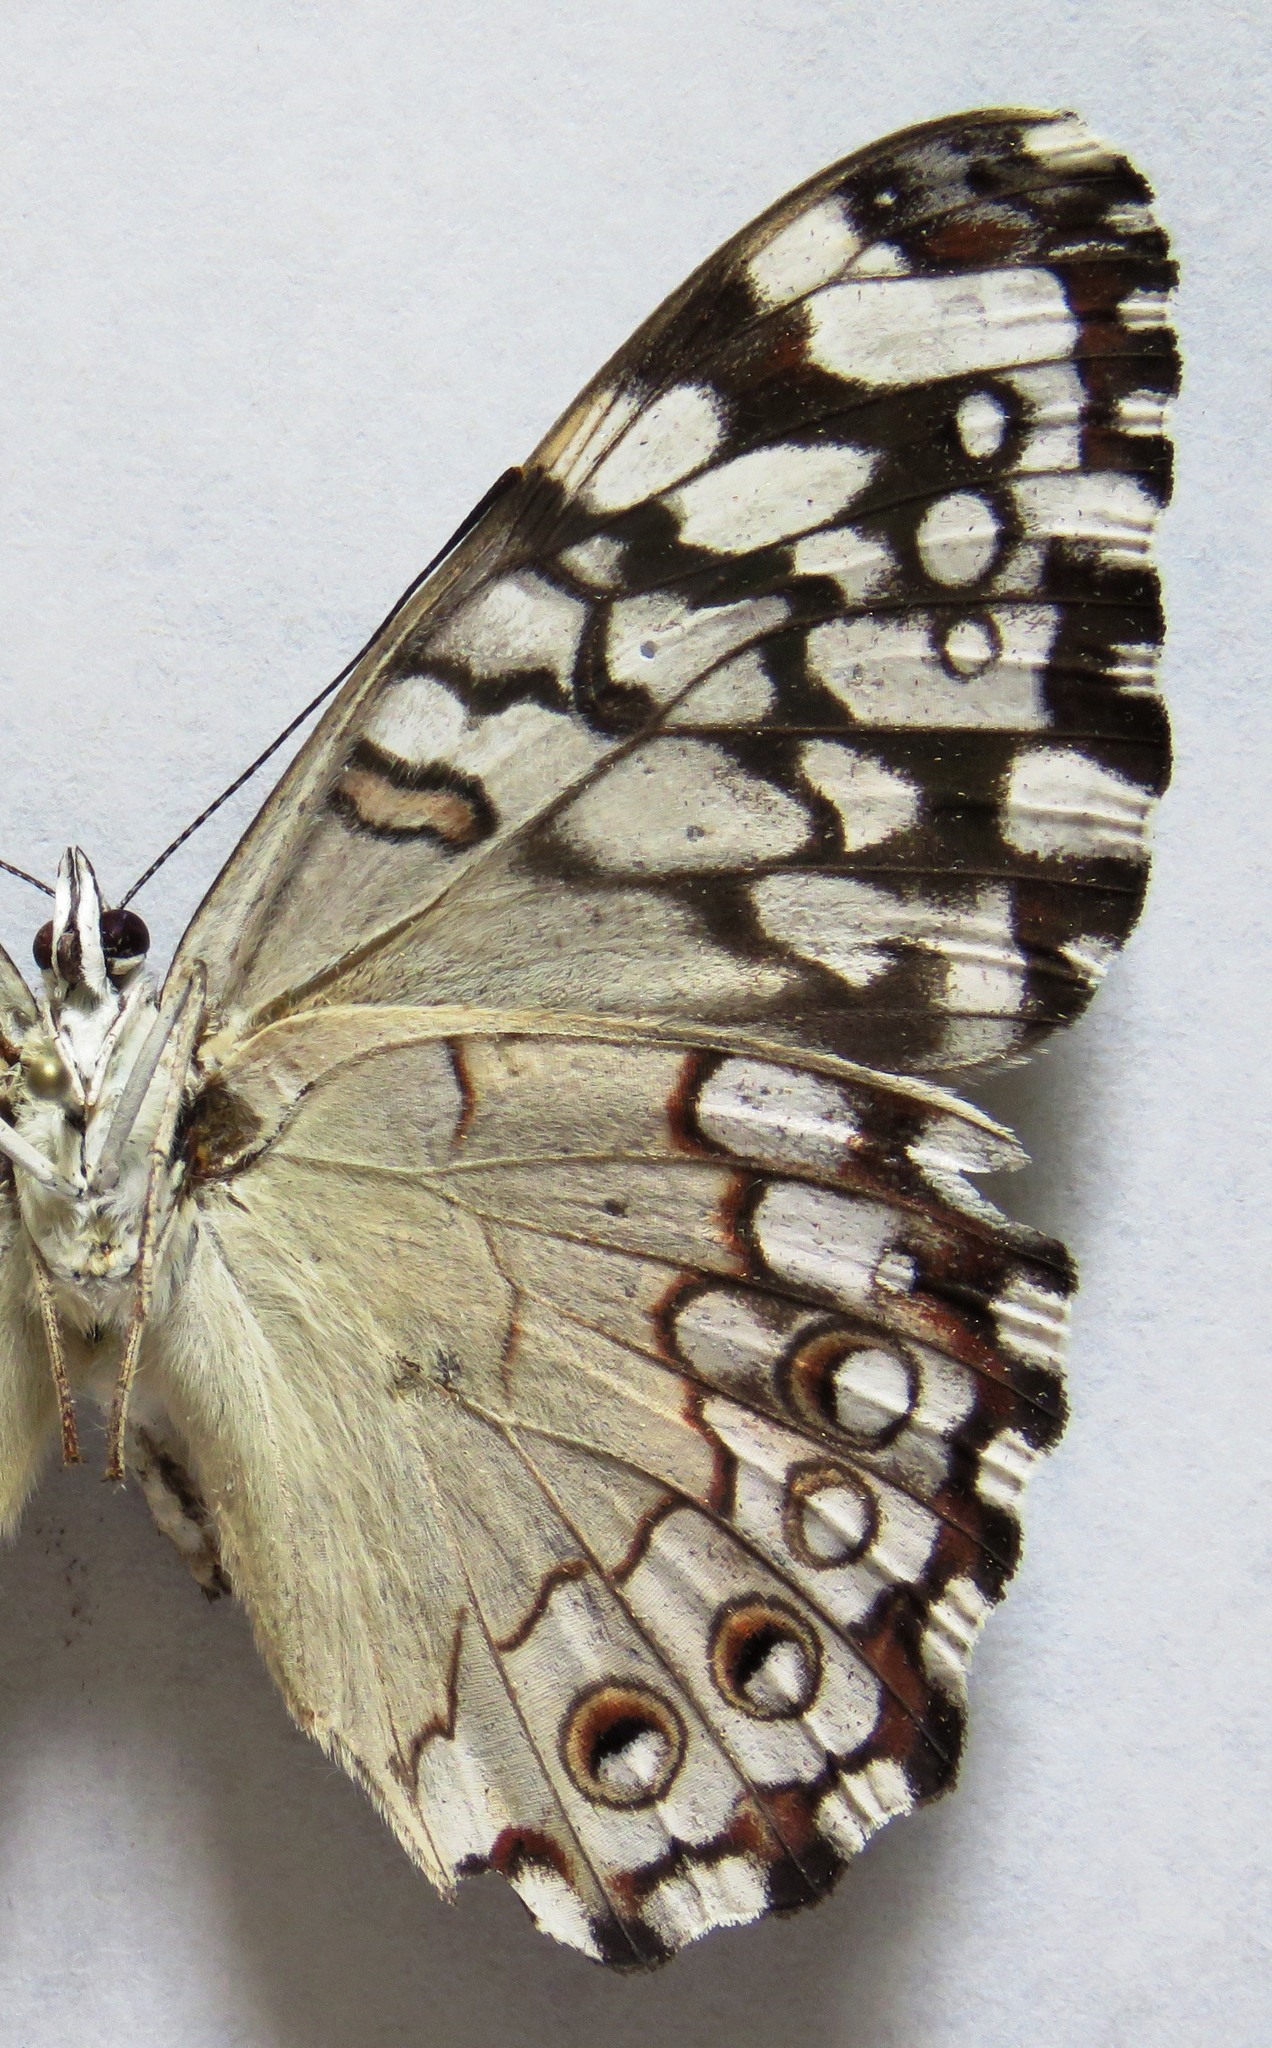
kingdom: Animalia
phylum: Arthropoda
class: Insecta
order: Lepidoptera
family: Nymphalidae
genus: Hamadryas
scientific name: Hamadryas februa
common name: Gray cracker
